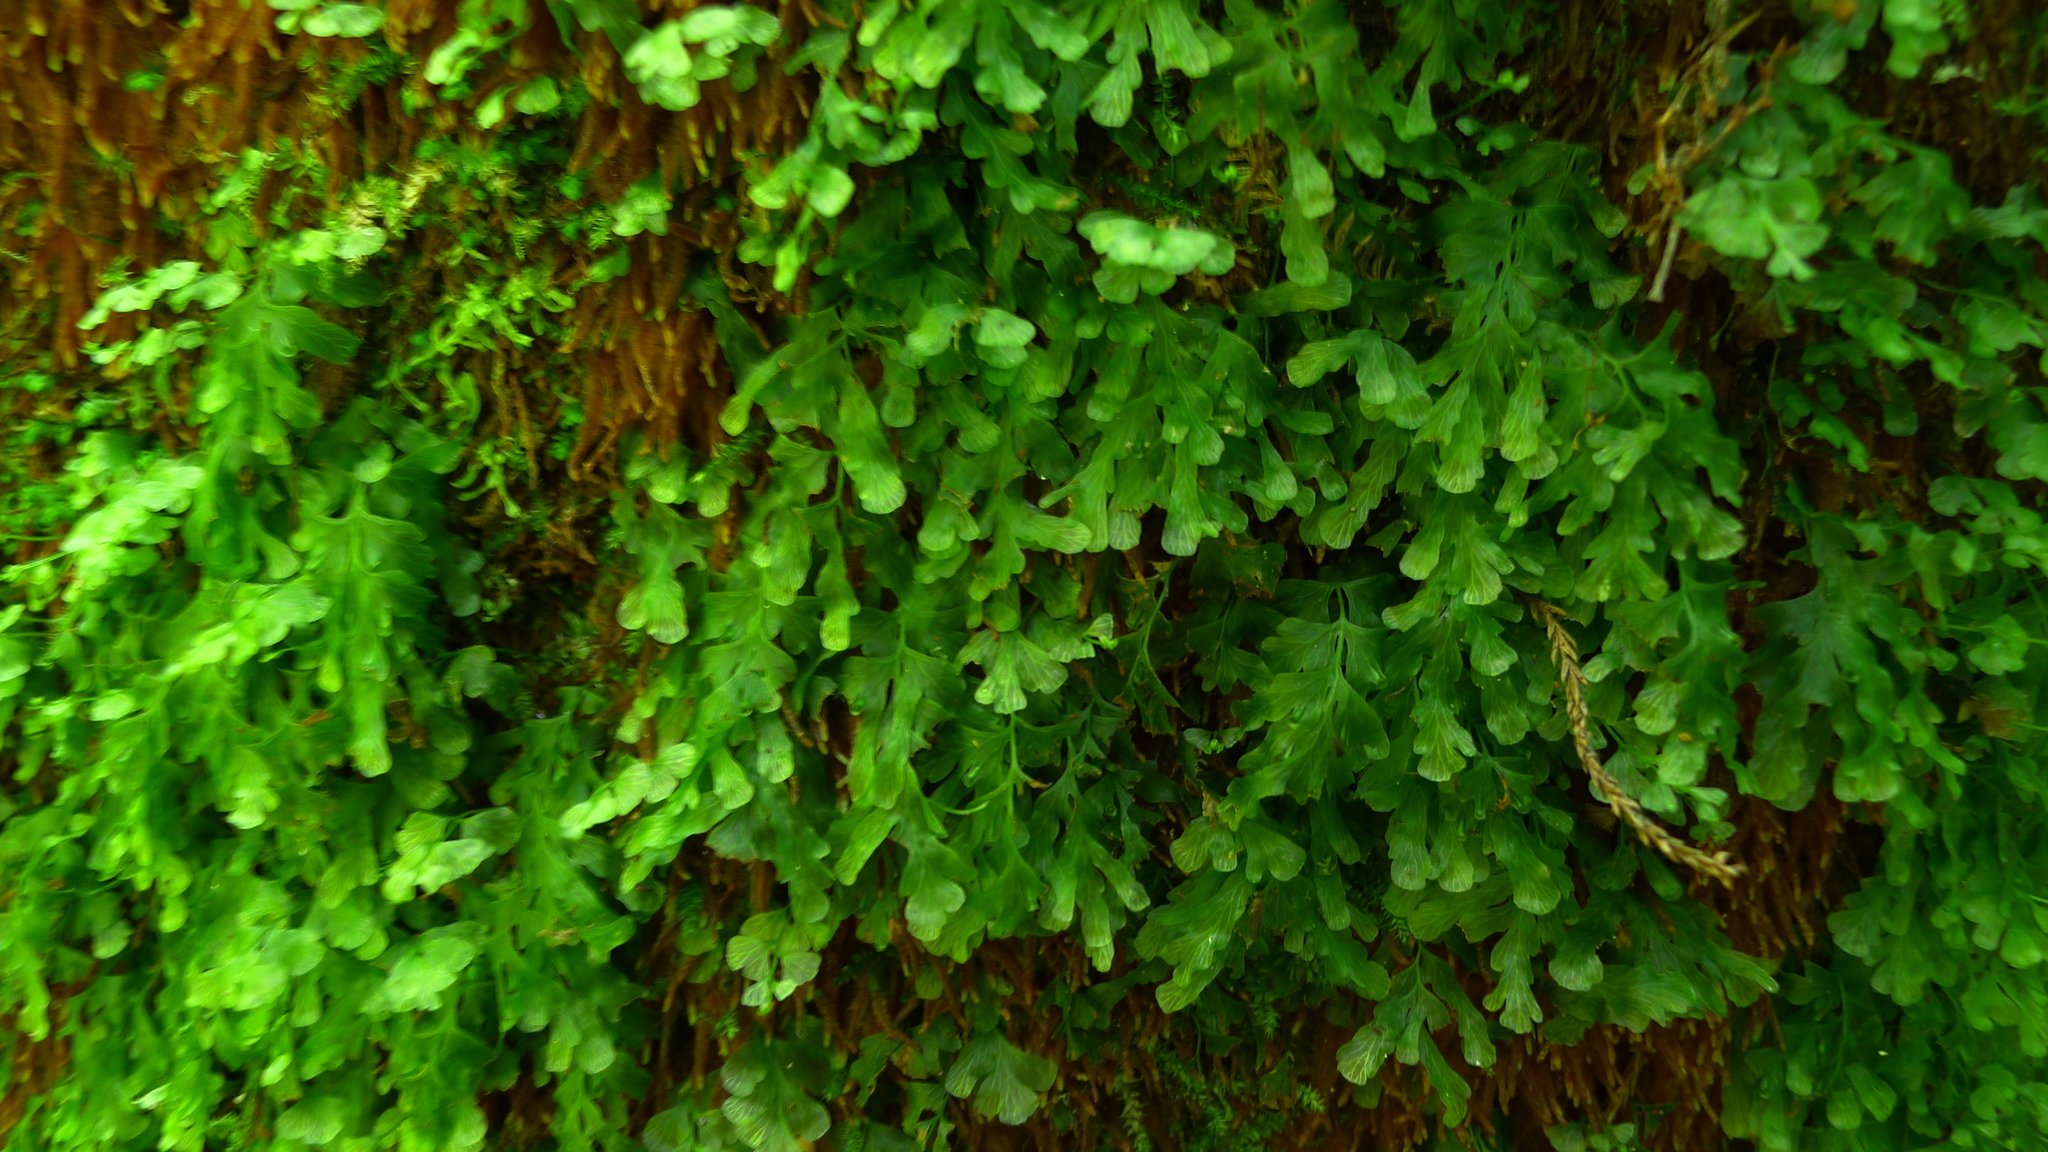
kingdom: Plantae
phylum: Tracheophyta
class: Polypodiopsida
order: Hymenophyllales
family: Hymenophyllaceae
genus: Polyphlebium
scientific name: Polyphlebium venosum
